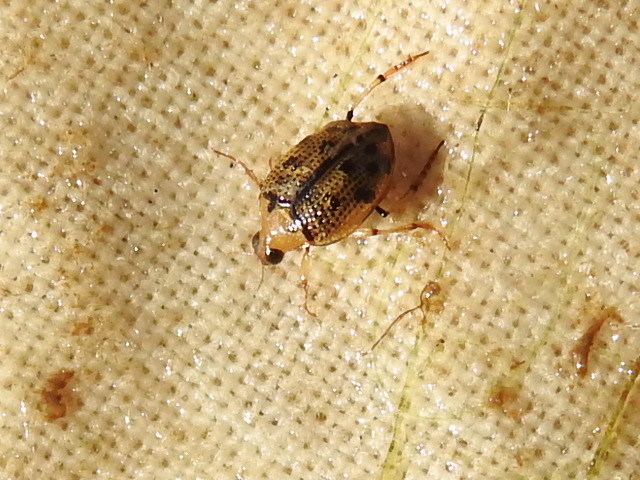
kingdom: Animalia
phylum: Arthropoda
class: Insecta
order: Coleoptera
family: Haliplidae
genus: Peltodytes
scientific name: Peltodytes sexmaculatus
